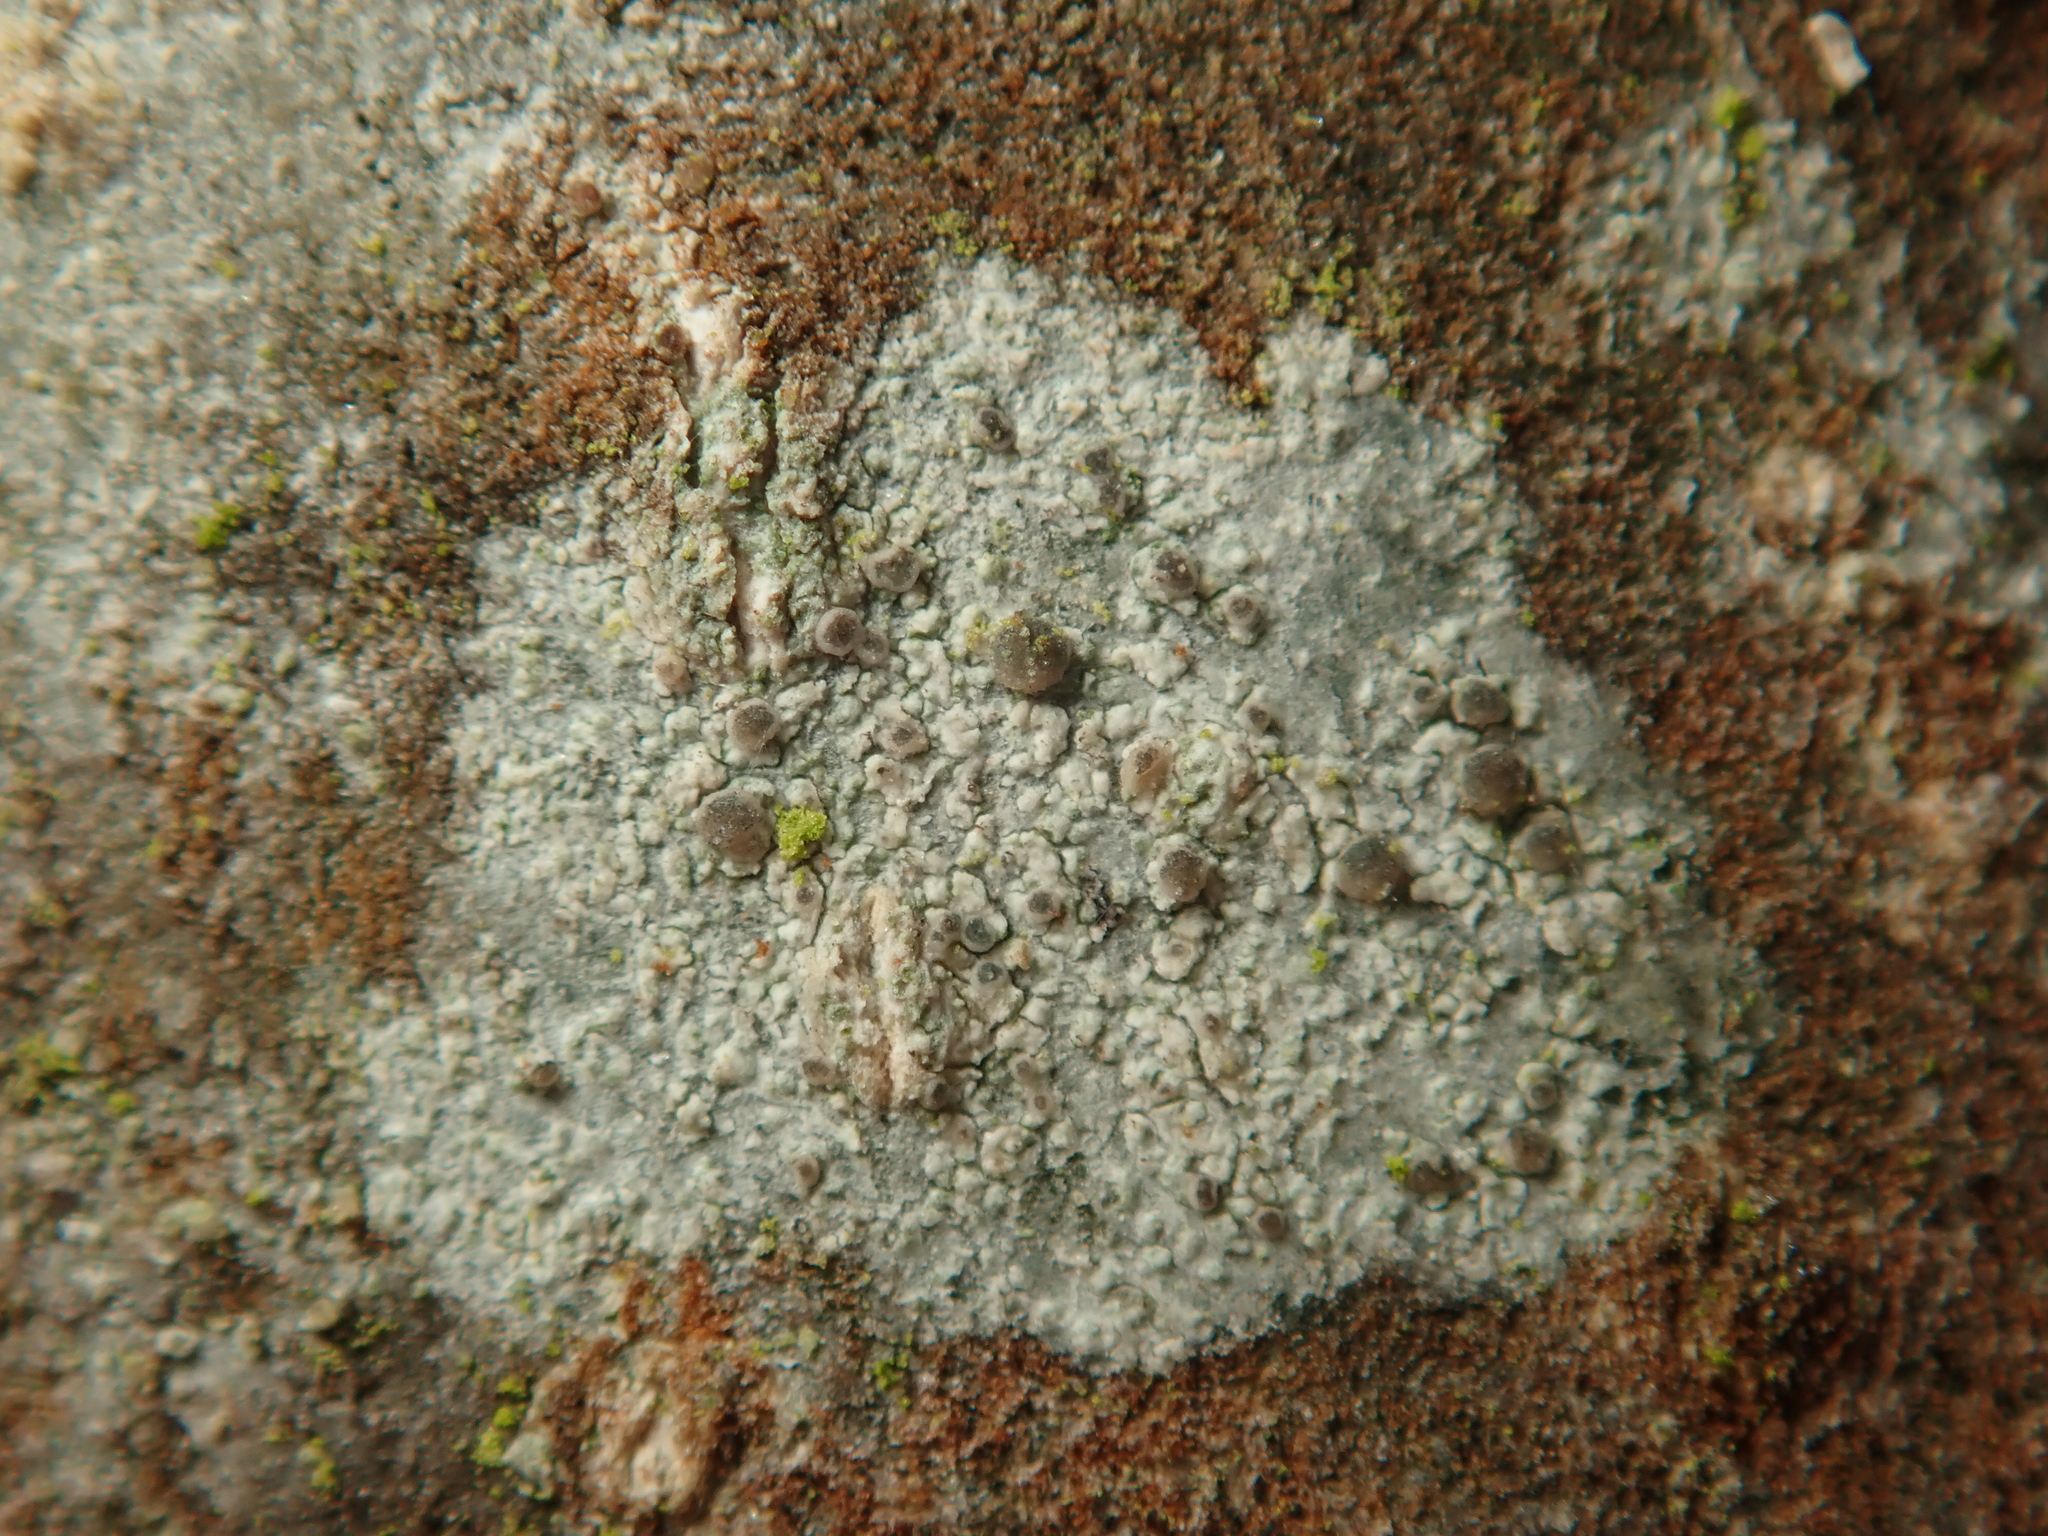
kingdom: Fungi
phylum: Ascomycota
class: Lecanoromycetes
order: Lecanorales
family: Ramalinaceae
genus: Lecania
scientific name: Lecania naegelii
